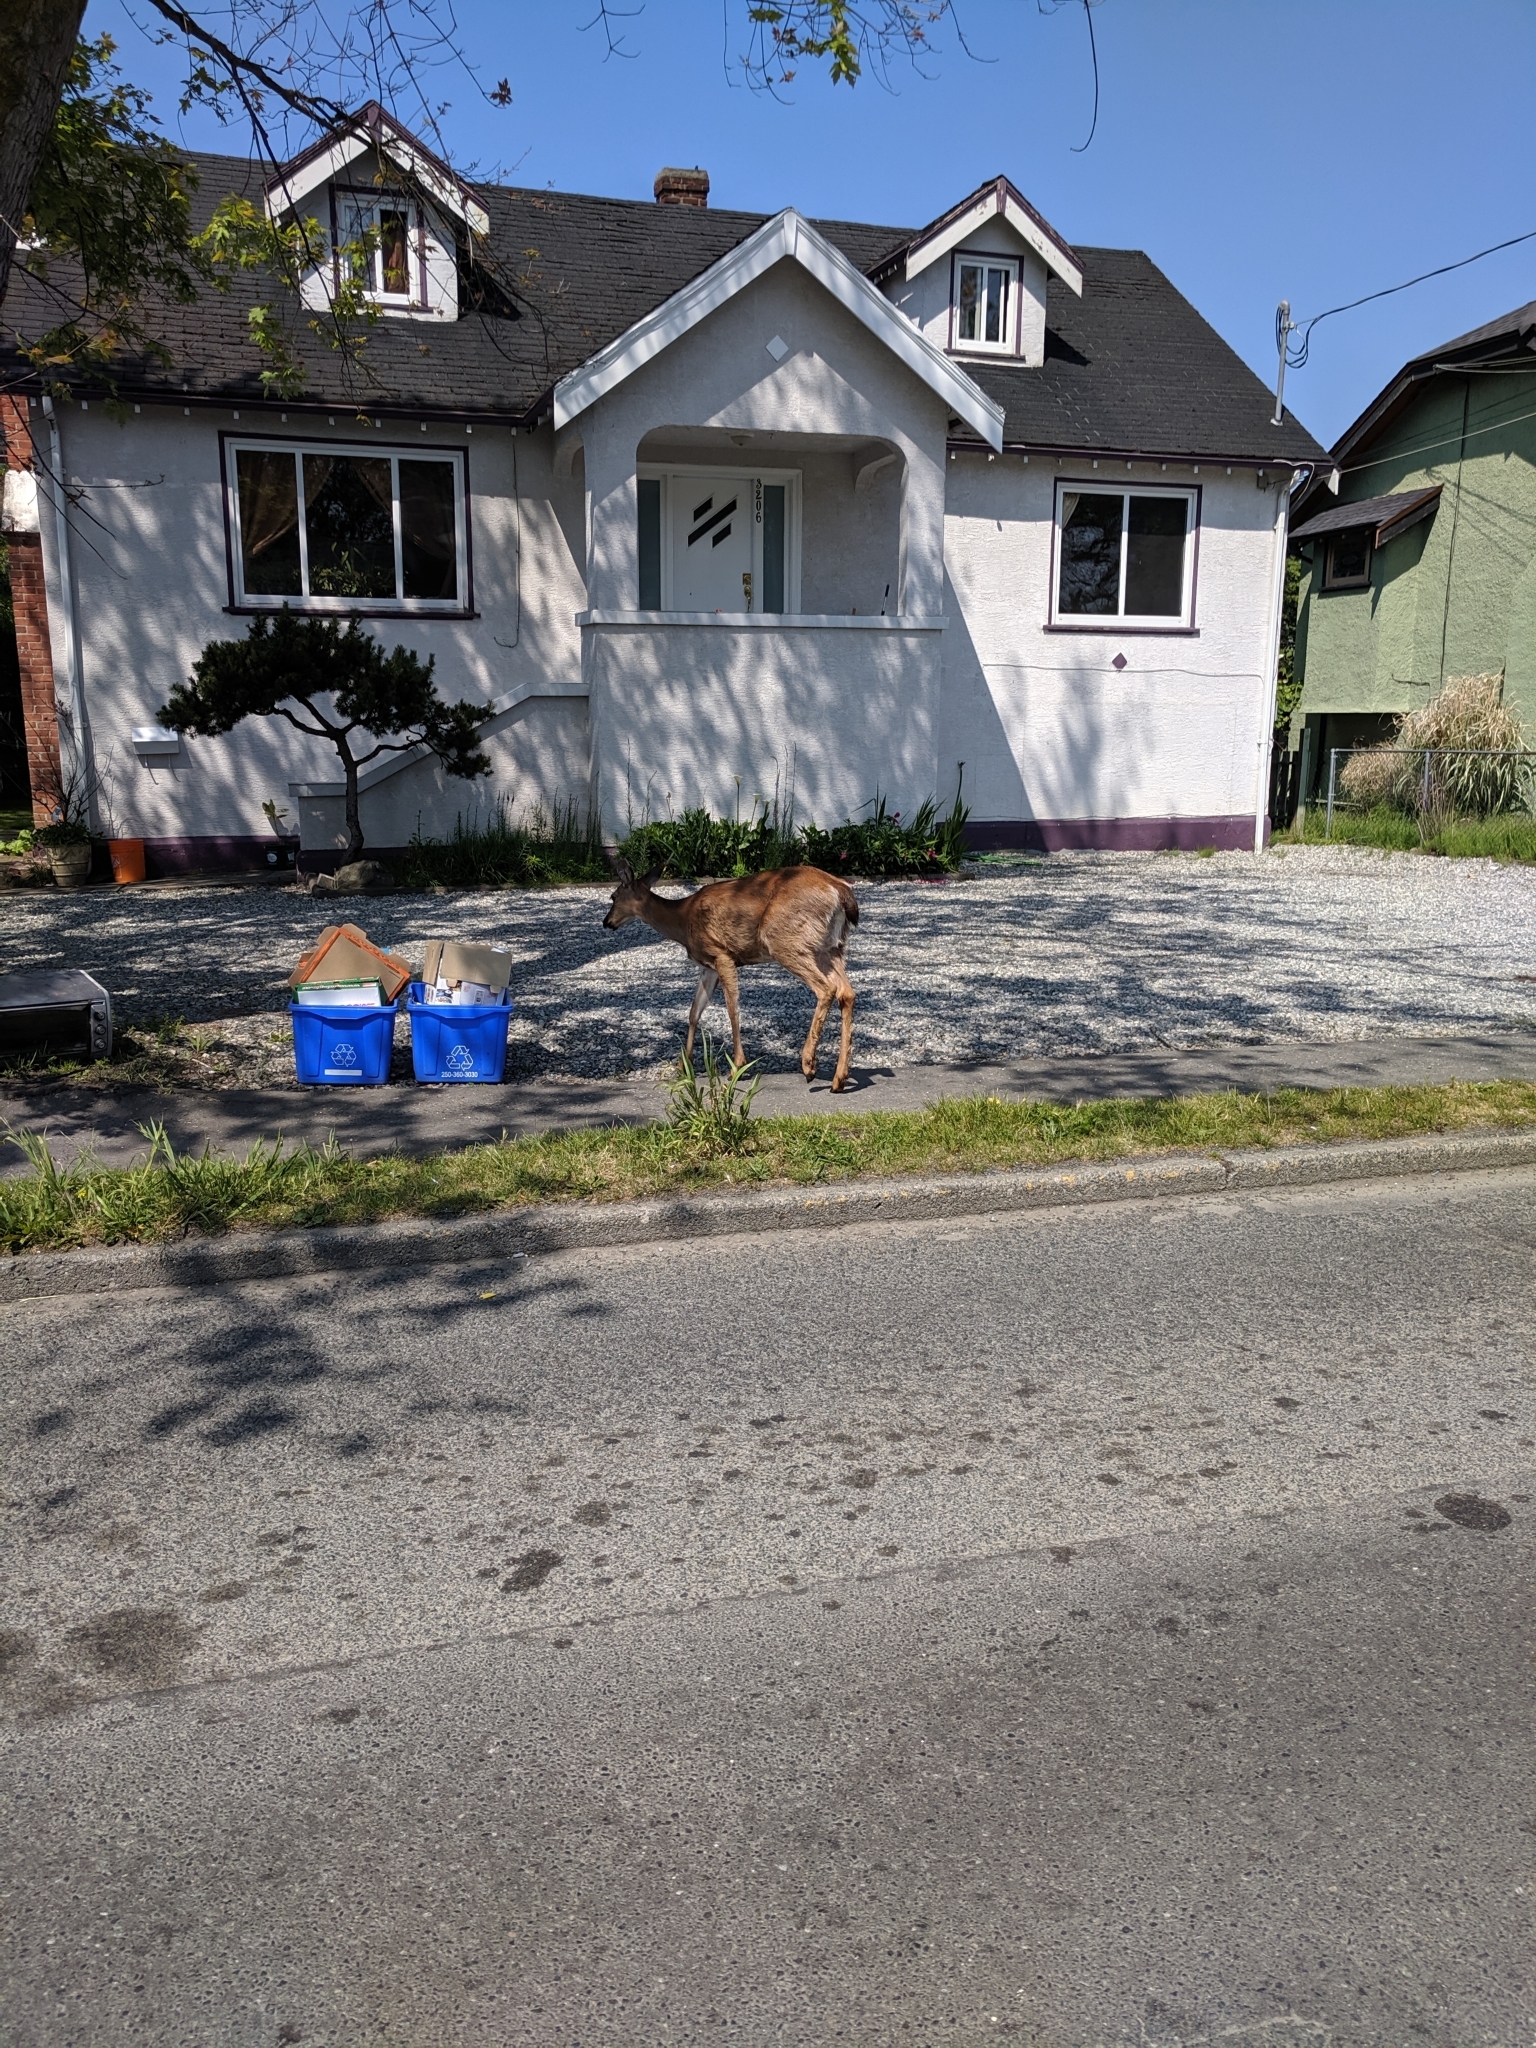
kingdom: Animalia
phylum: Chordata
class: Mammalia
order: Artiodactyla
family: Cervidae
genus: Odocoileus
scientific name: Odocoileus hemionus
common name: Mule deer
